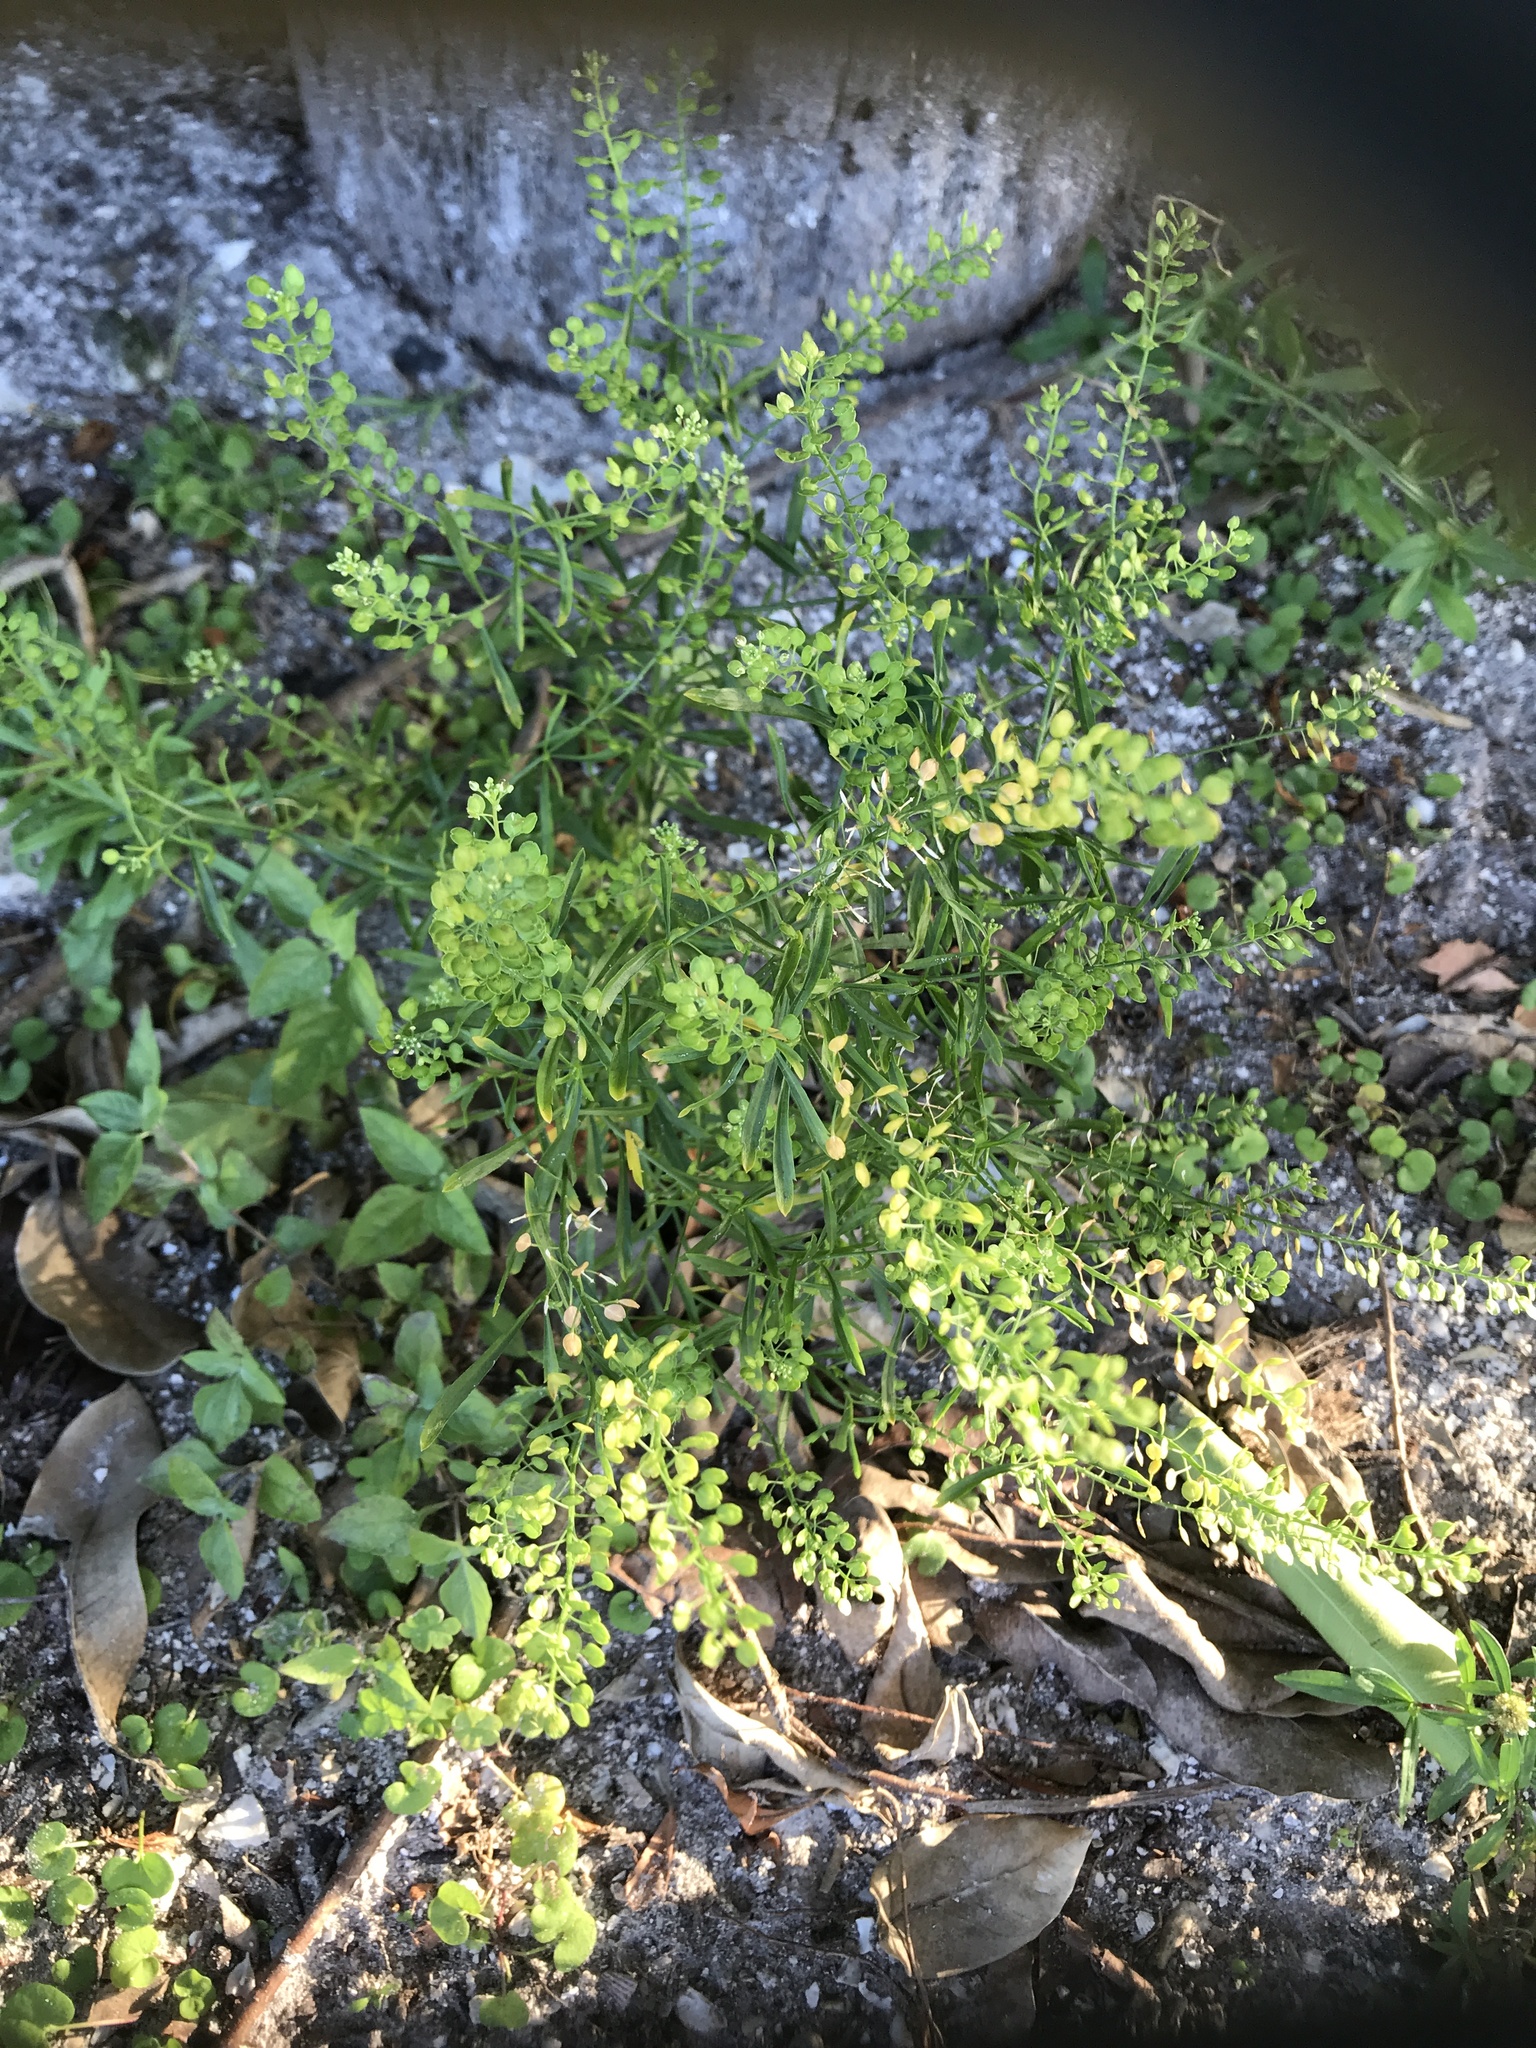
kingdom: Plantae
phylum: Tracheophyta
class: Magnoliopsida
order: Brassicales
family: Brassicaceae
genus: Lepidium
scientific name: Lepidium virginicum
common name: Least pepperwort
